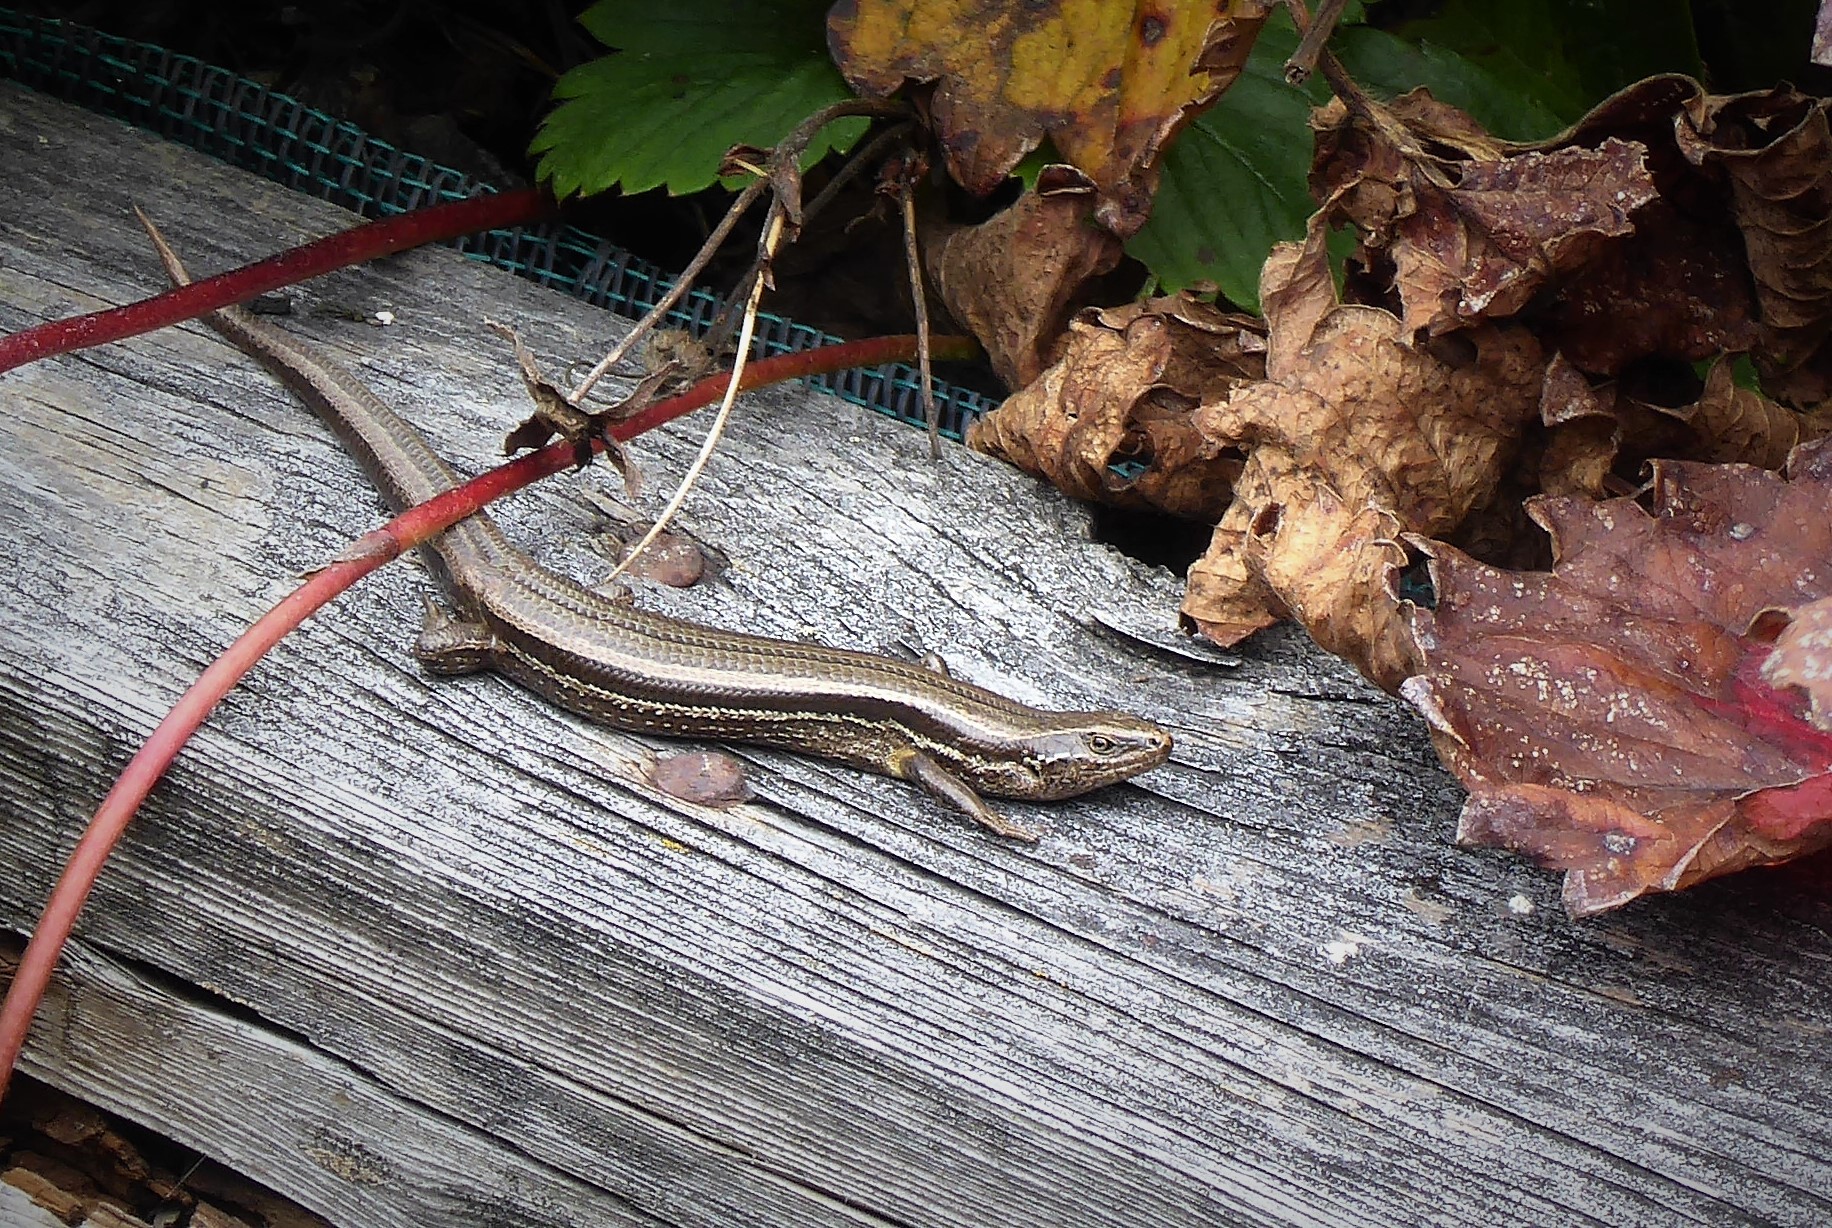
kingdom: Animalia
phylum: Chordata
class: Squamata
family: Scincidae
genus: Oligosoma
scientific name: Oligosoma polychroma
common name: Common new zealand skink
